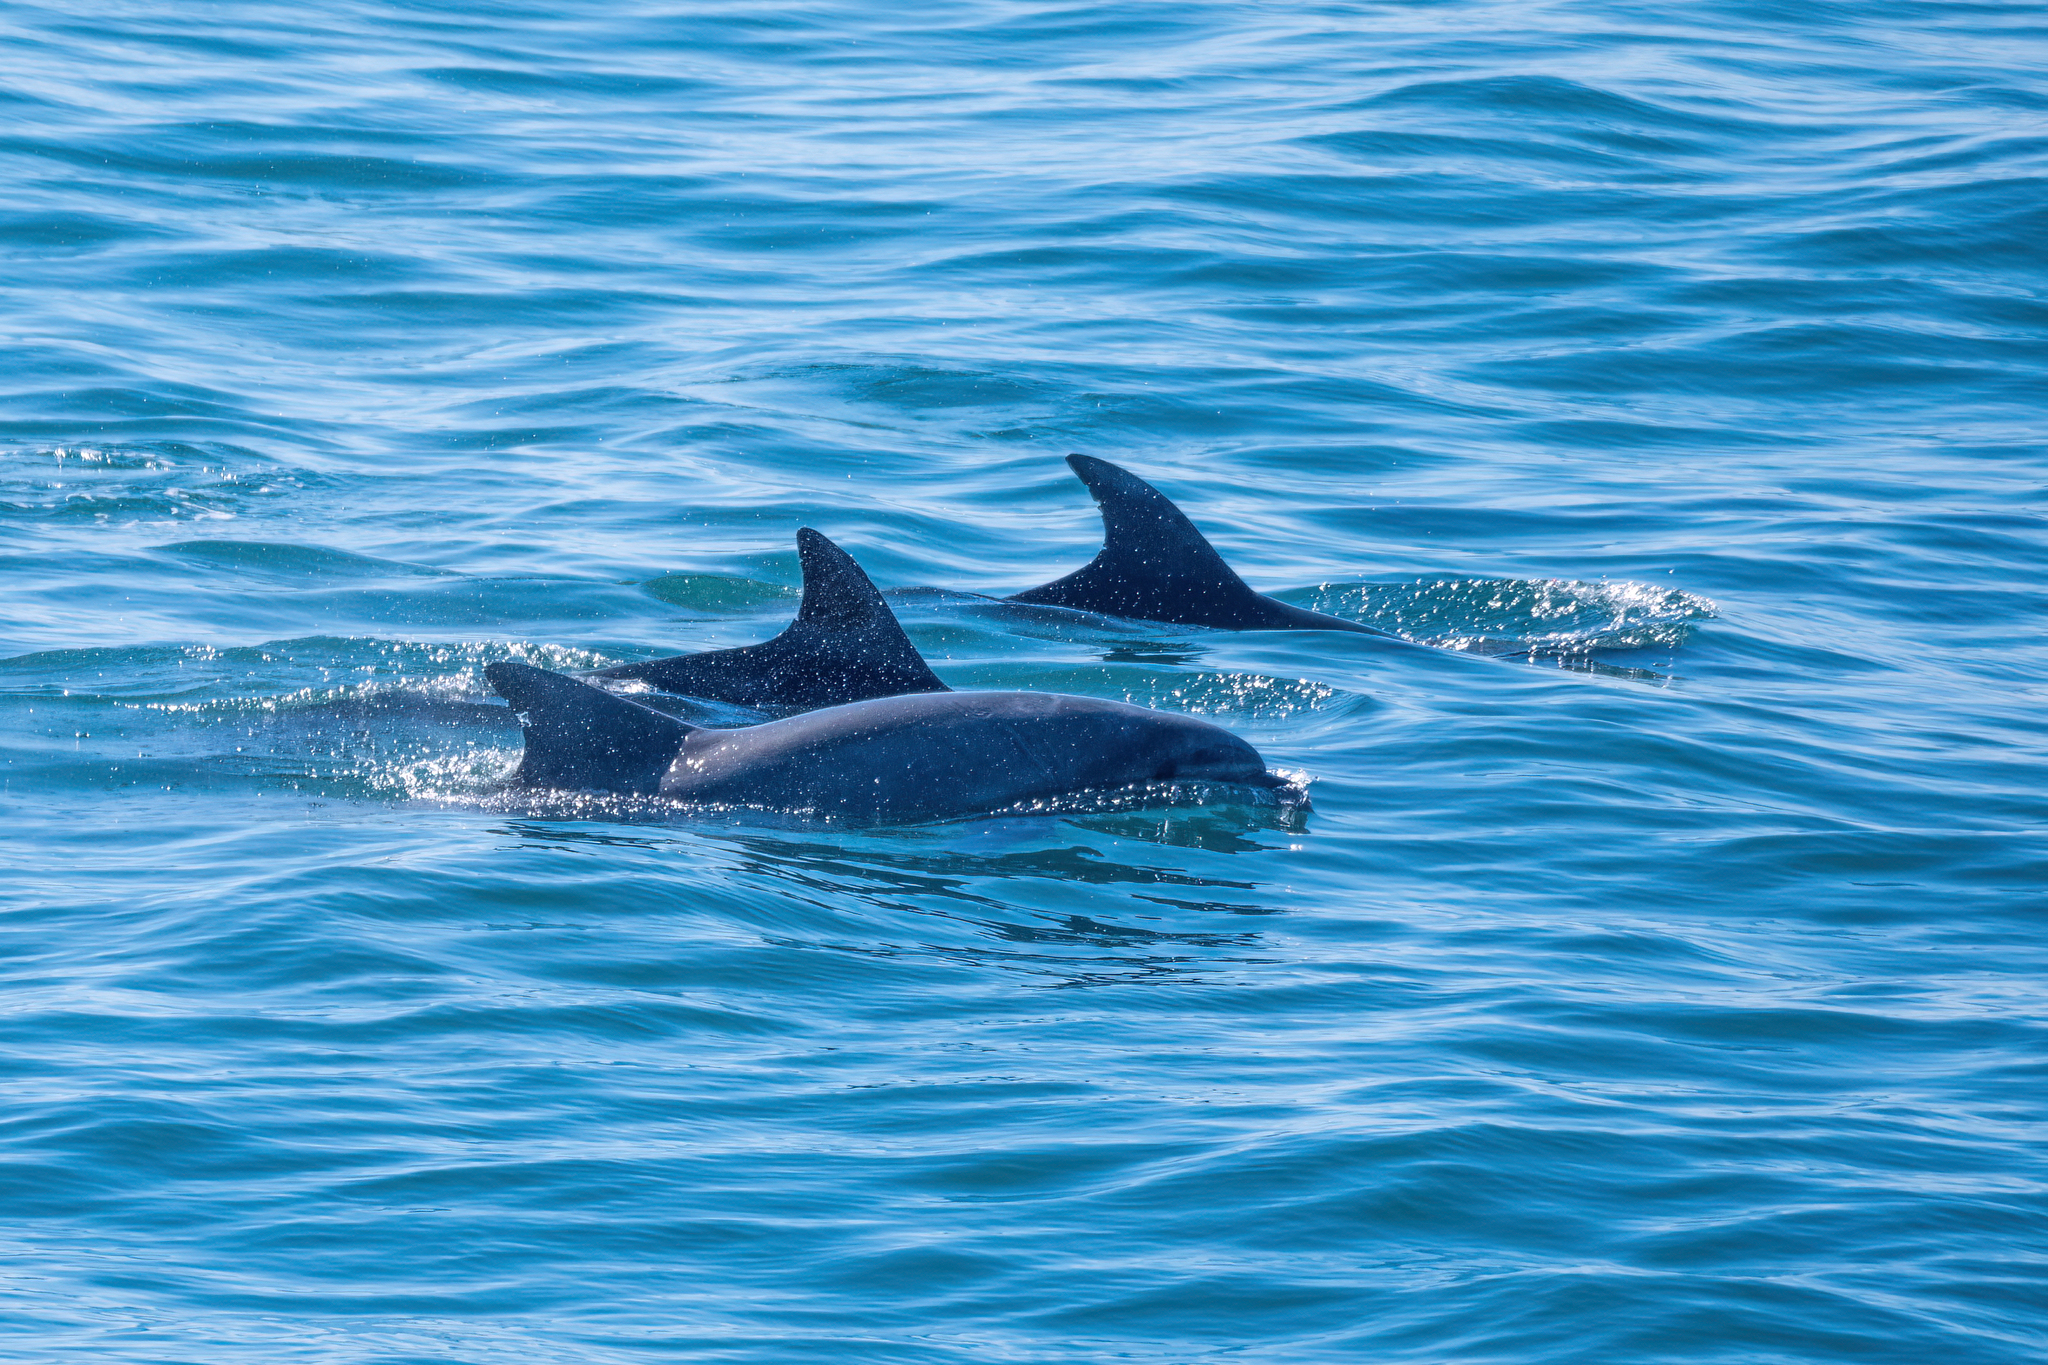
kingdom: Animalia
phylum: Chordata
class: Mammalia
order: Cetacea
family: Delphinidae
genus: Tursiops
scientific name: Tursiops truncatus
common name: Bottlenose dolphin
